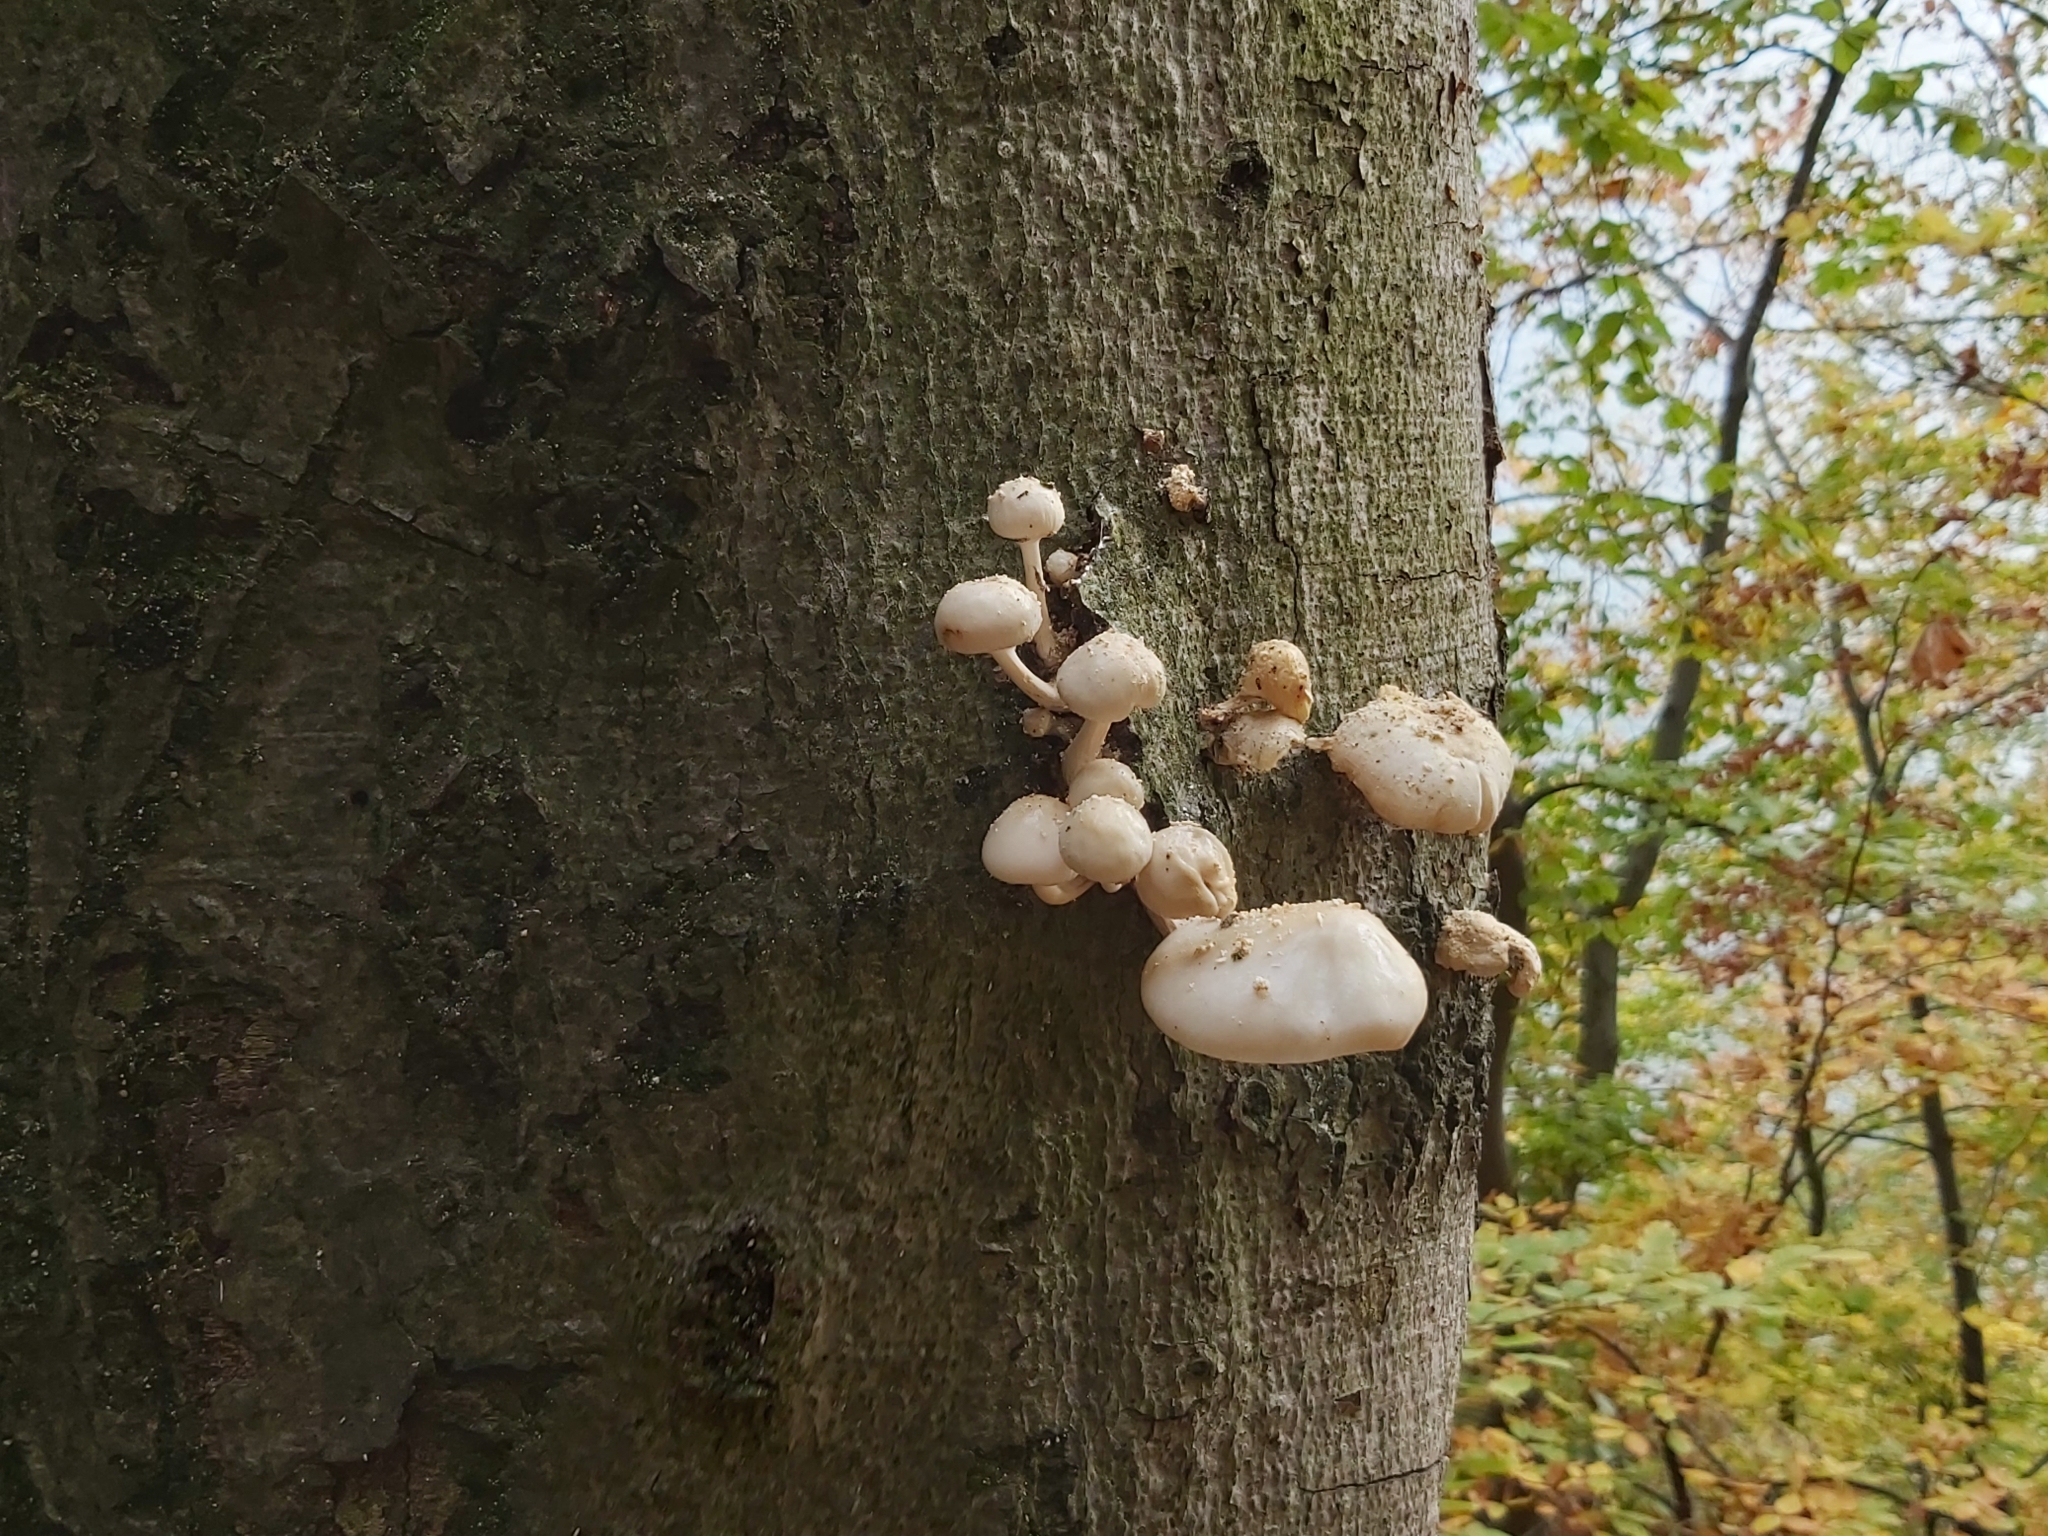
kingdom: Fungi
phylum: Basidiomycota
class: Agaricomycetes
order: Agaricales
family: Physalacriaceae
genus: Mucidula
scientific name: Mucidula mucida
